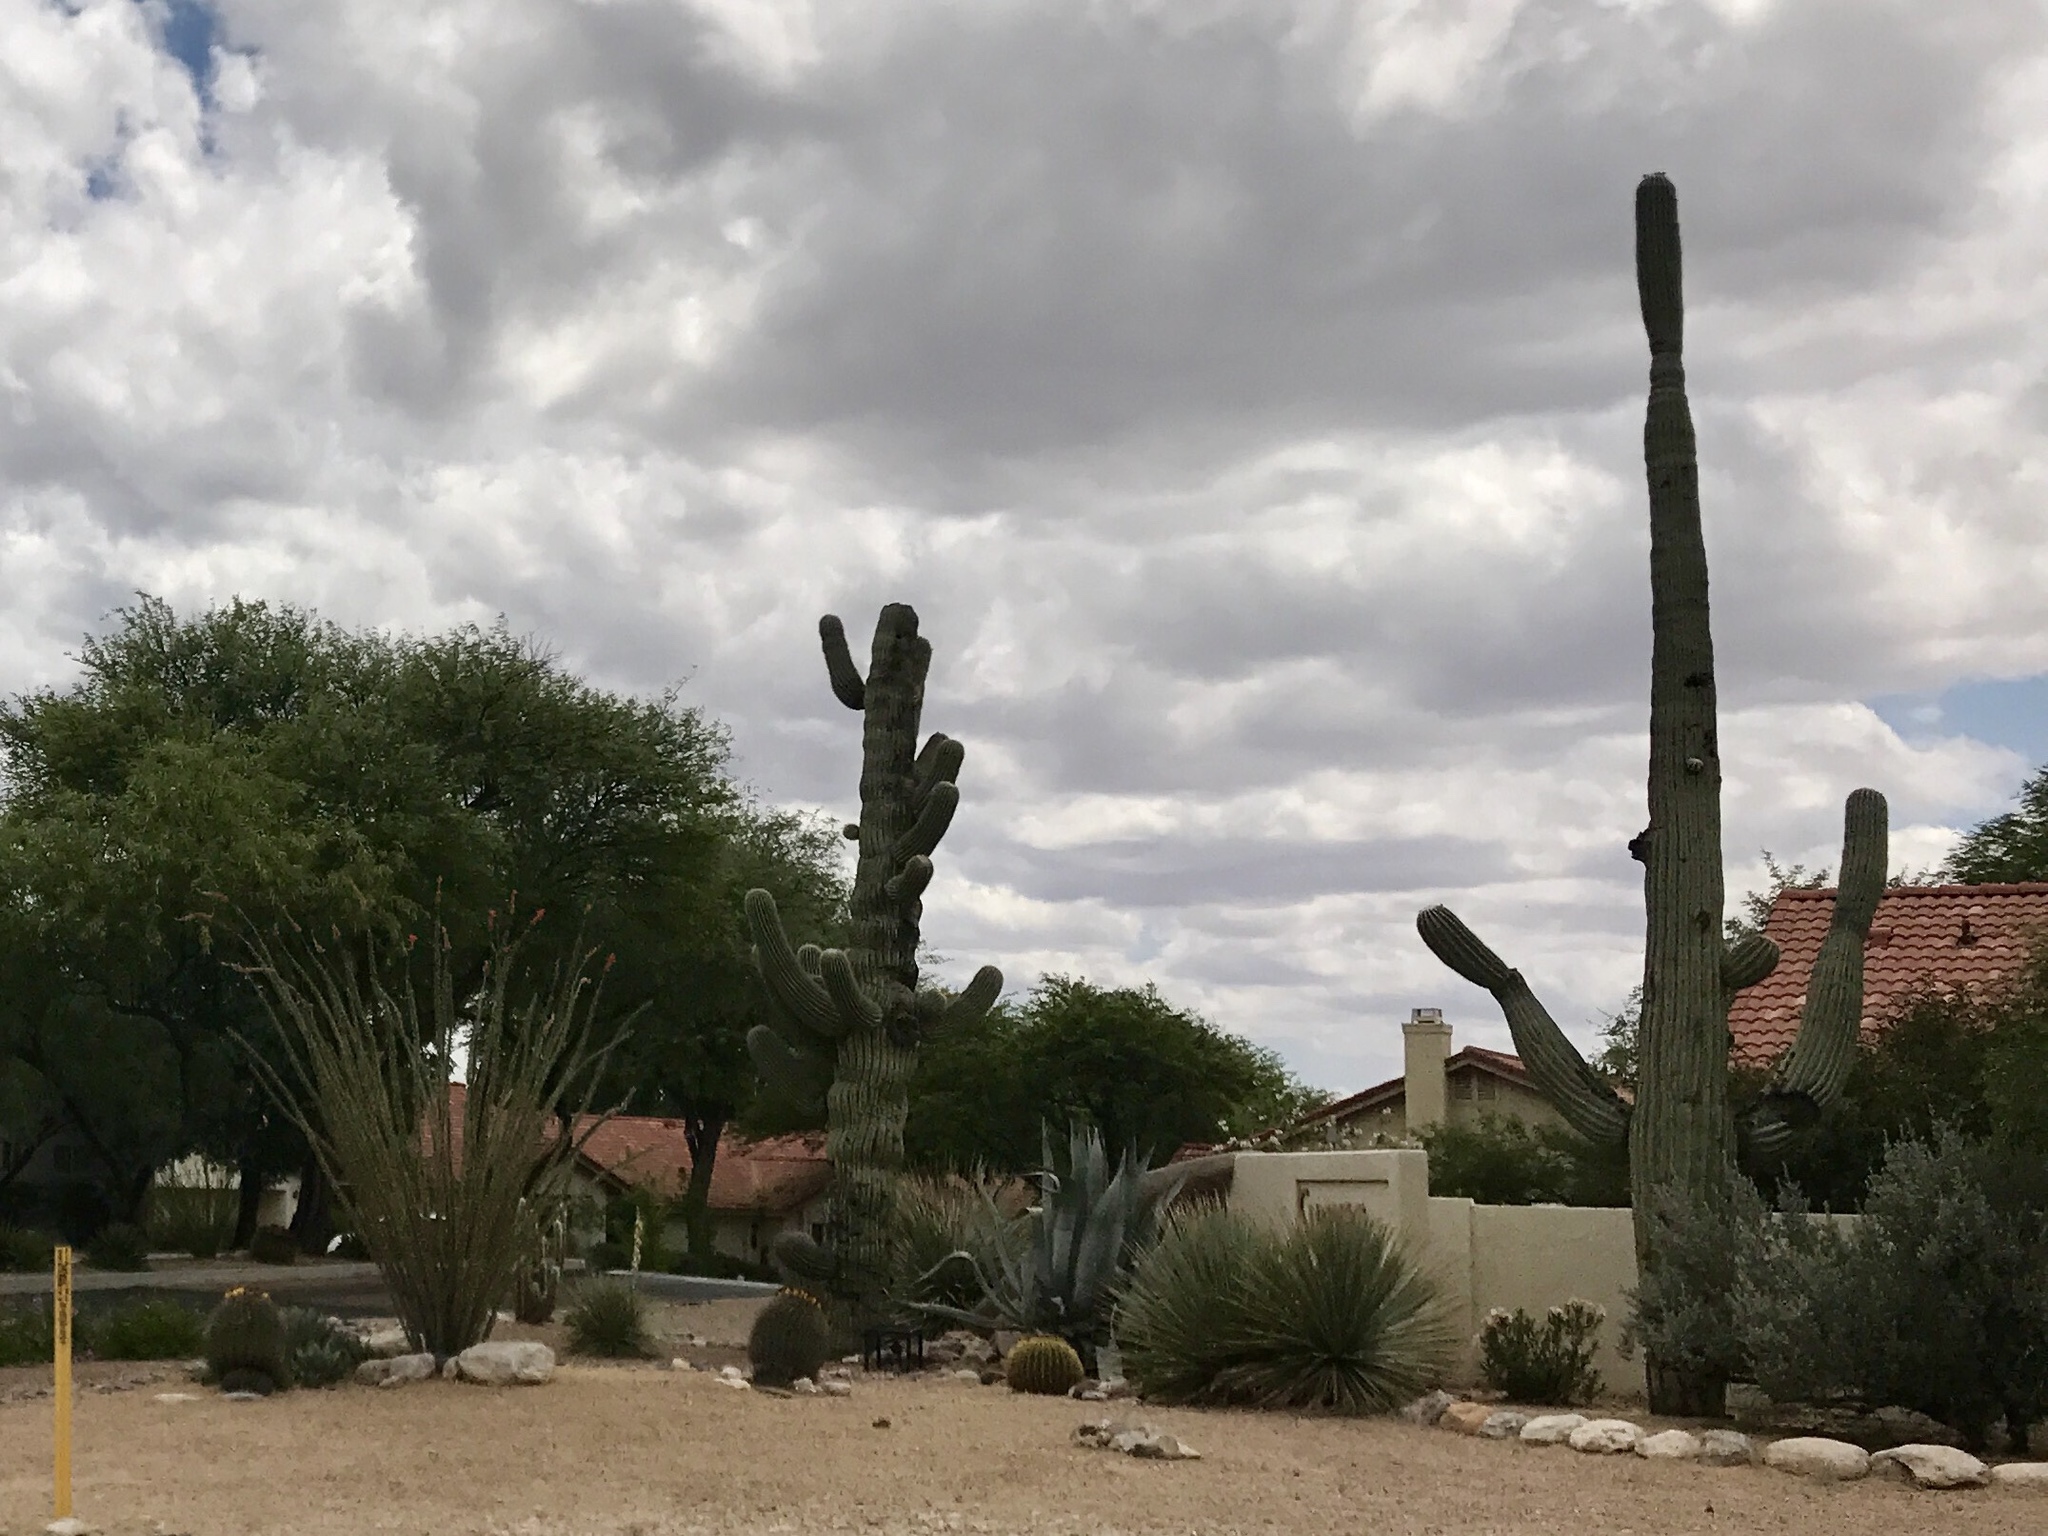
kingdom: Plantae
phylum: Tracheophyta
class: Magnoliopsida
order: Caryophyllales
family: Cactaceae
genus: Carnegiea
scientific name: Carnegiea gigantea
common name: Saguaro
